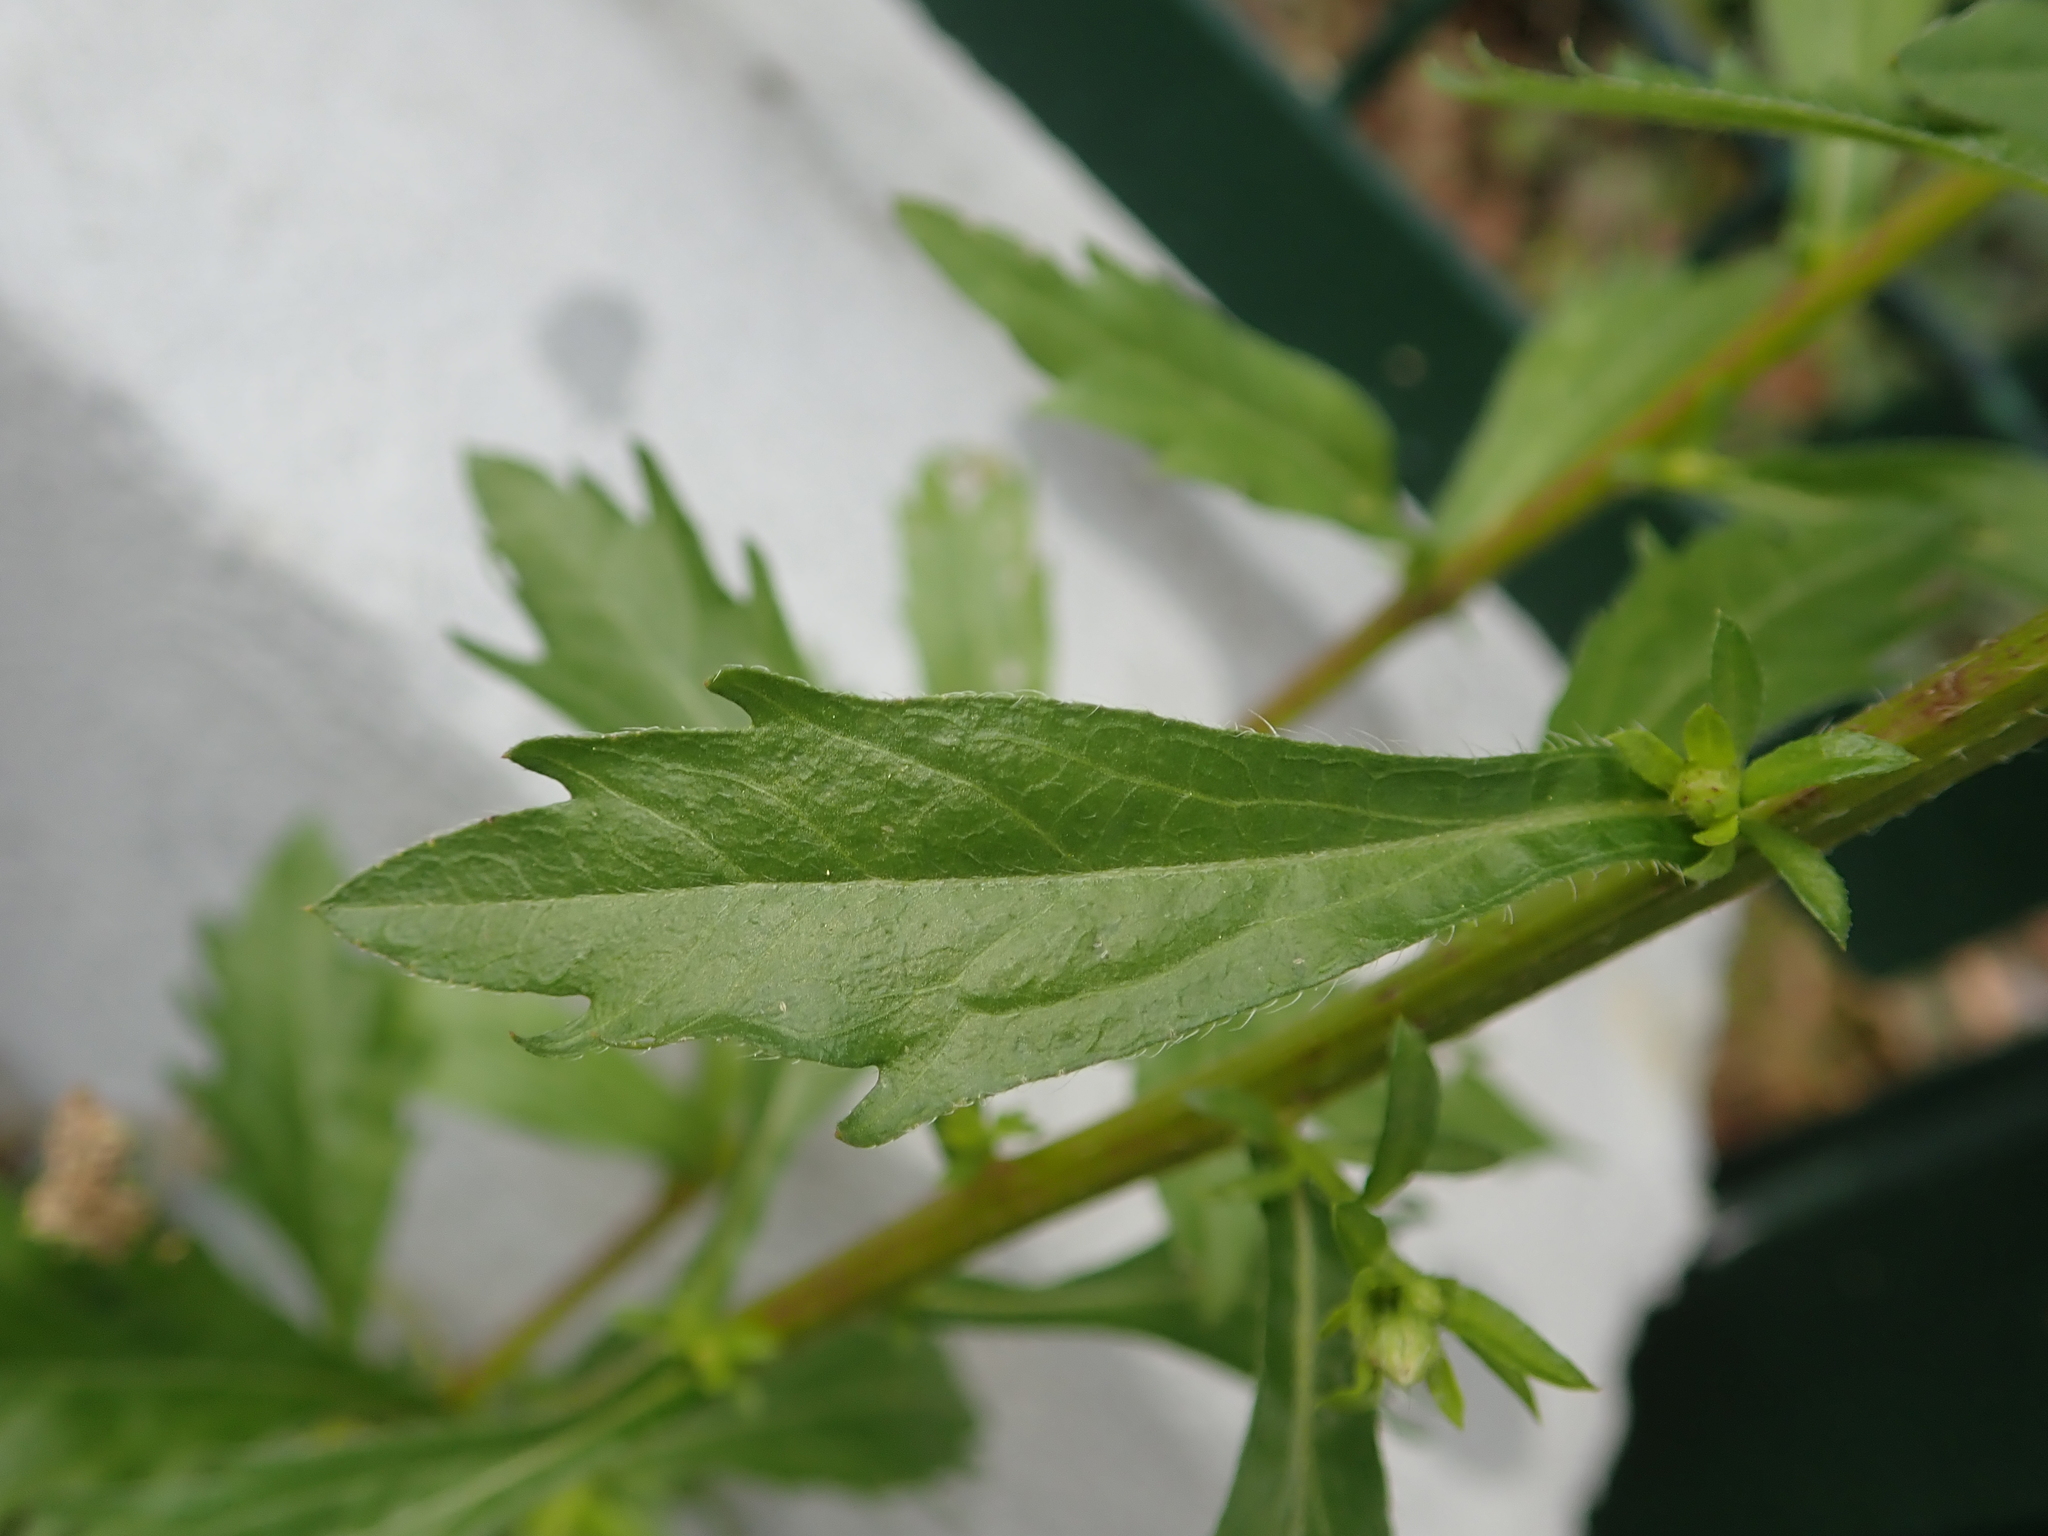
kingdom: Plantae
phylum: Tracheophyta
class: Magnoliopsida
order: Asterales
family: Asteraceae
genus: Erigeron
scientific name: Erigeron annuus
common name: Tall fleabane
